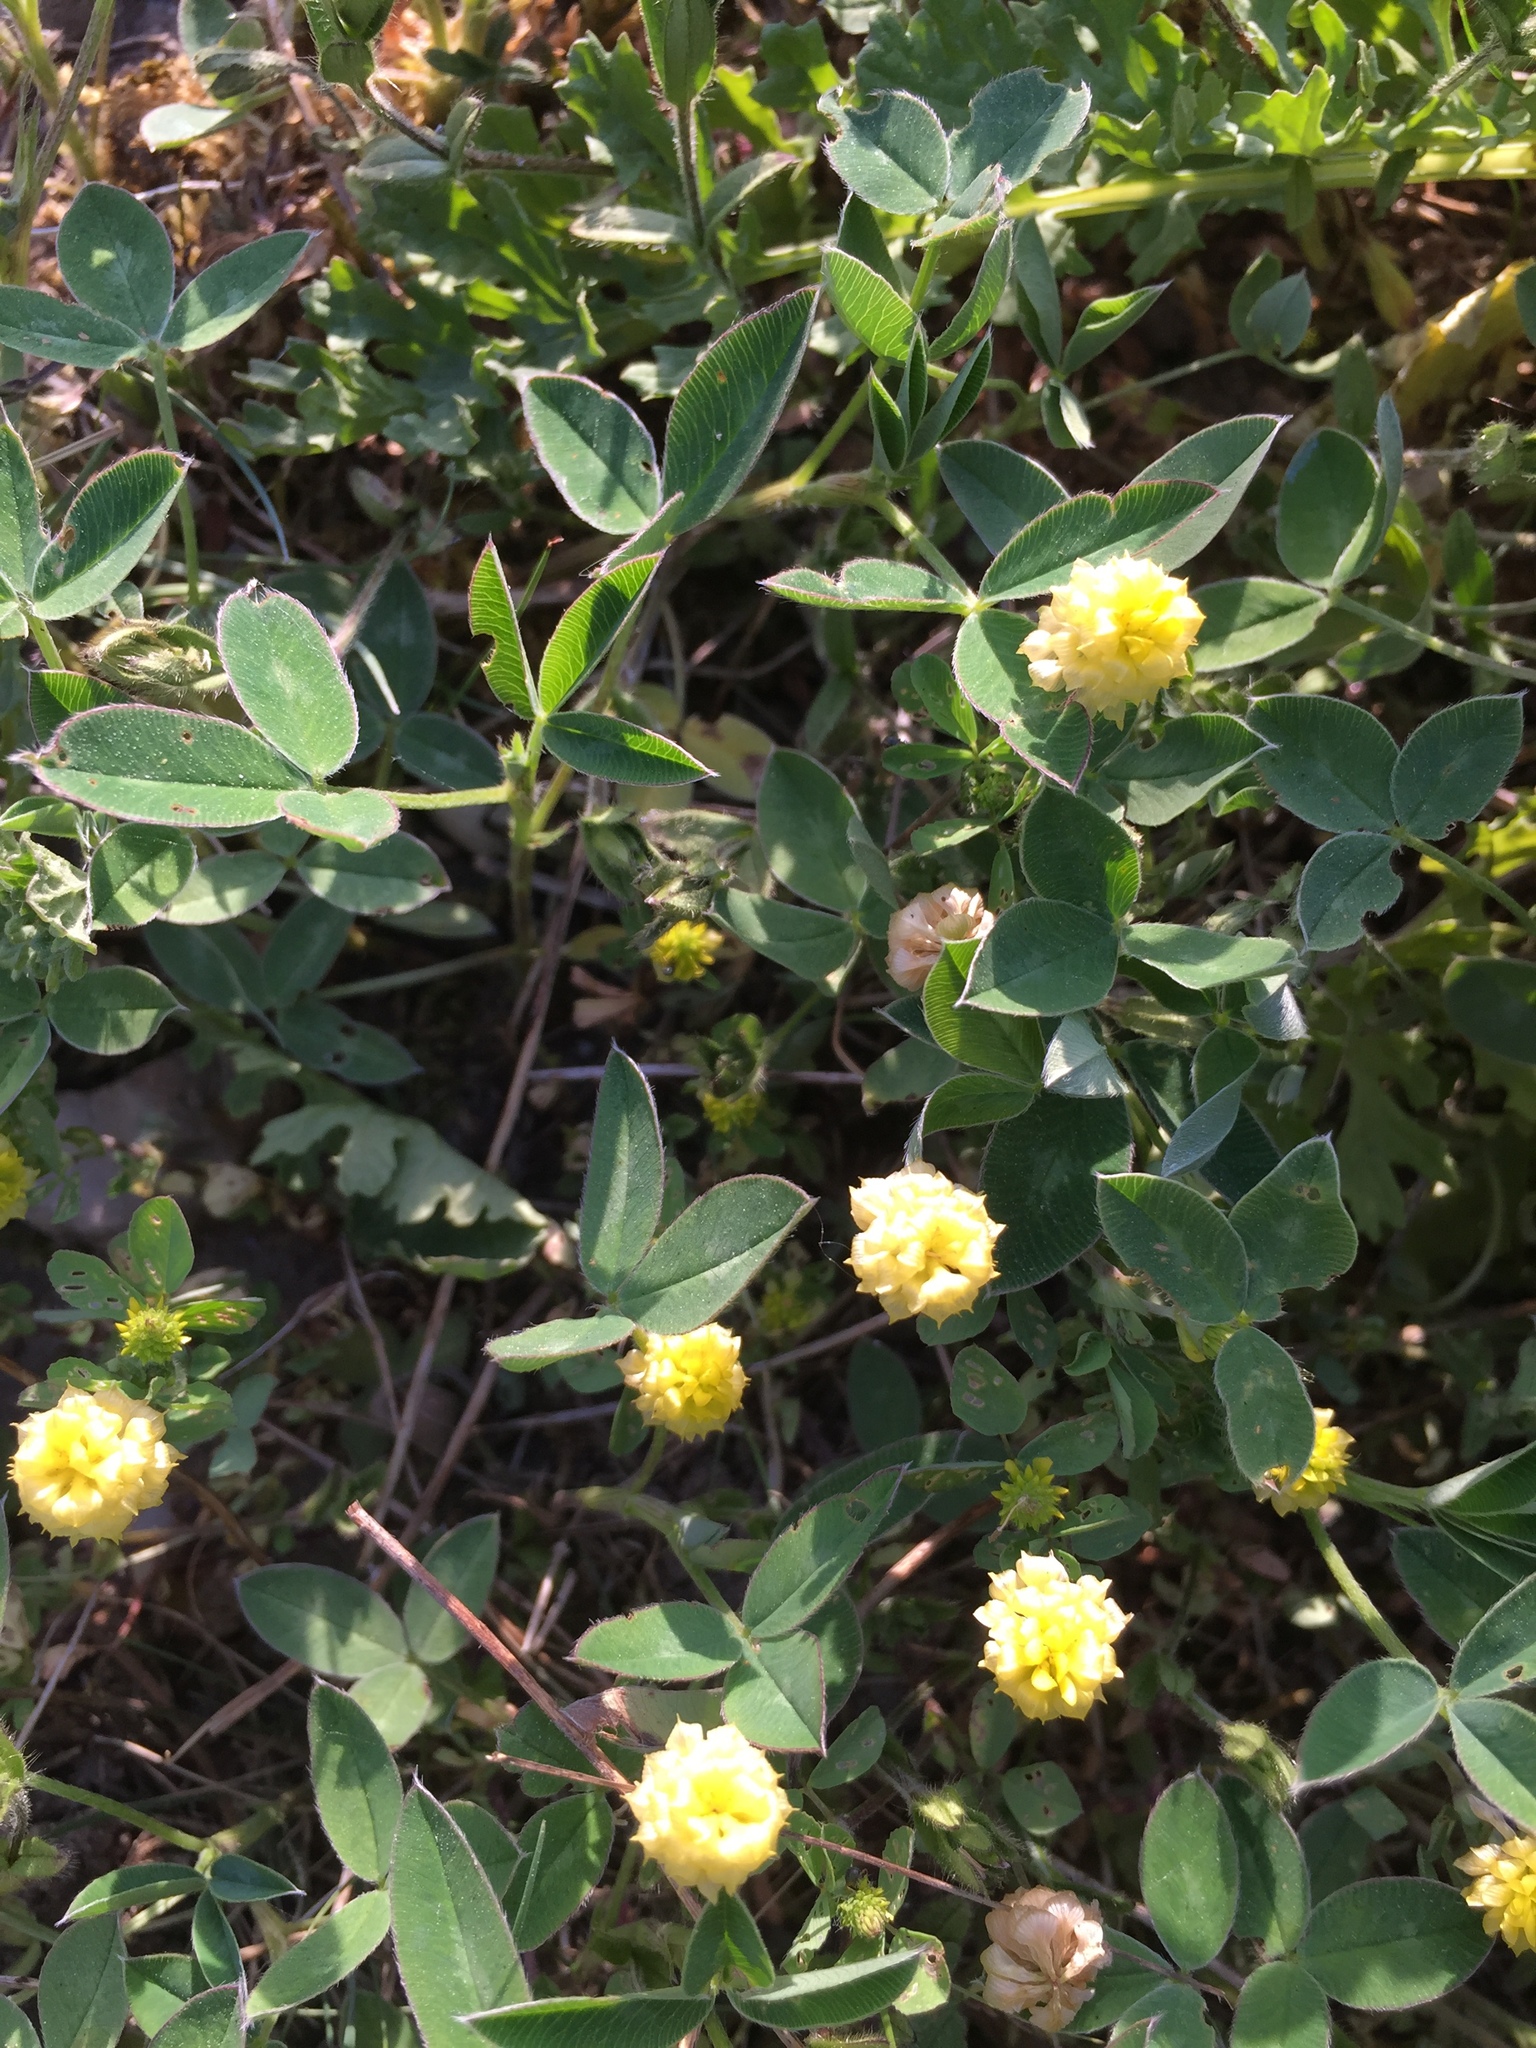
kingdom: Plantae
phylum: Tracheophyta
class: Magnoliopsida
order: Fabales
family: Fabaceae
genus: Trifolium
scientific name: Trifolium campestre
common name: Field clover
